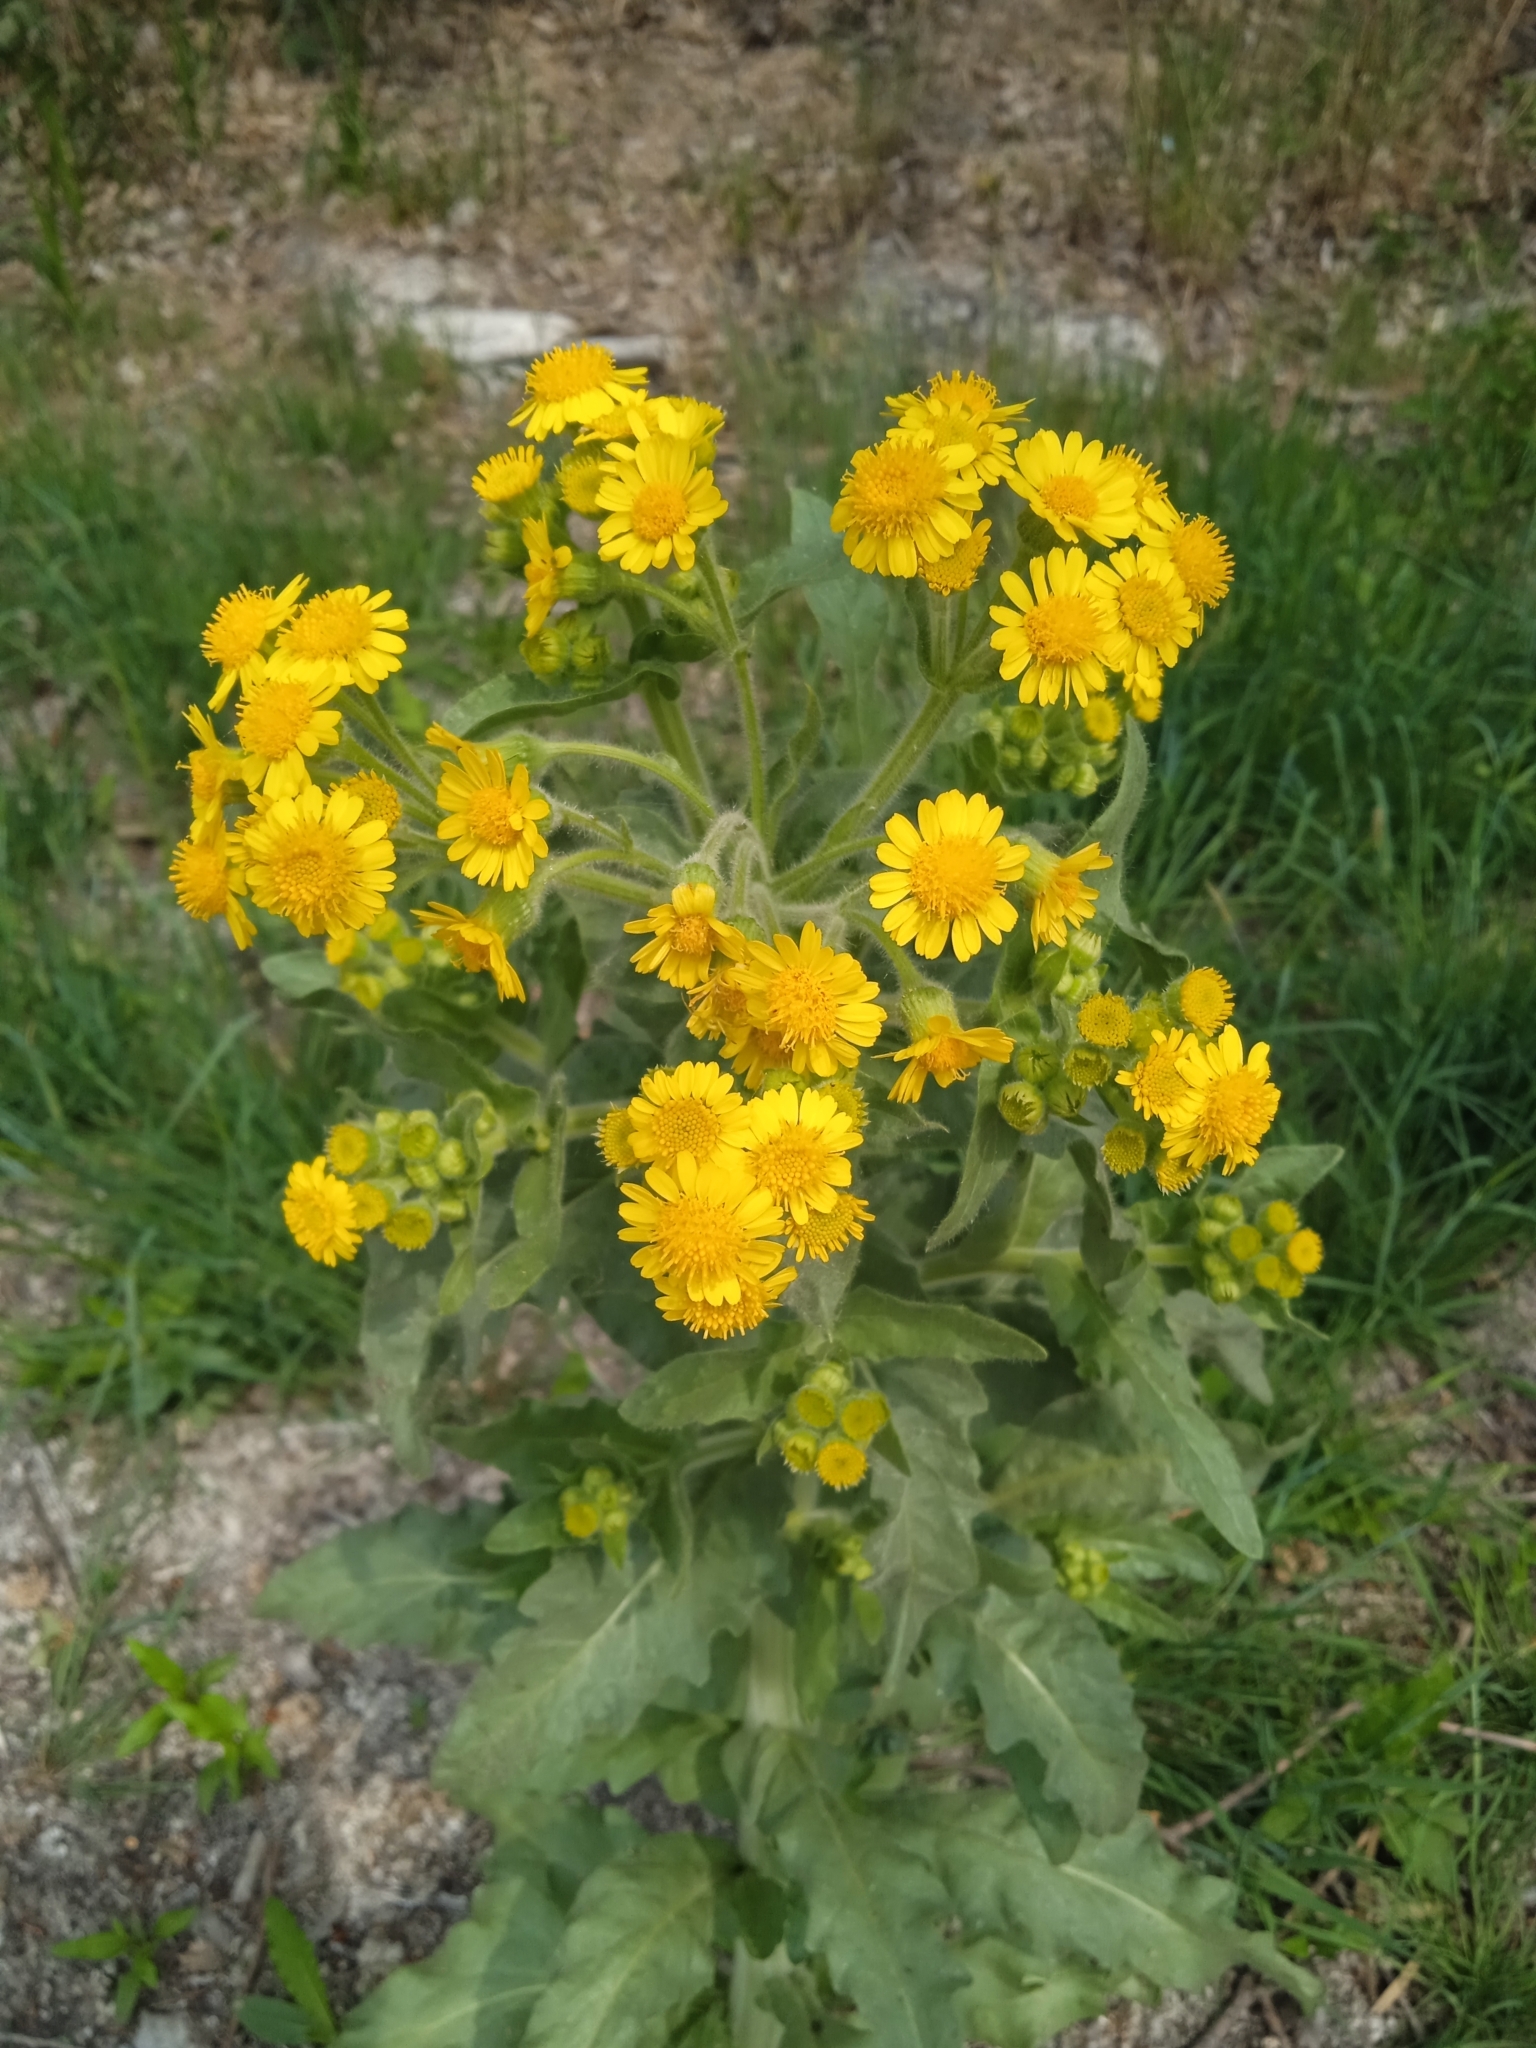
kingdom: Plantae
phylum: Tracheophyta
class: Magnoliopsida
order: Asterales
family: Asteraceae
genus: Tephroseris
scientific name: Tephroseris palustris
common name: Marsh fleawort
